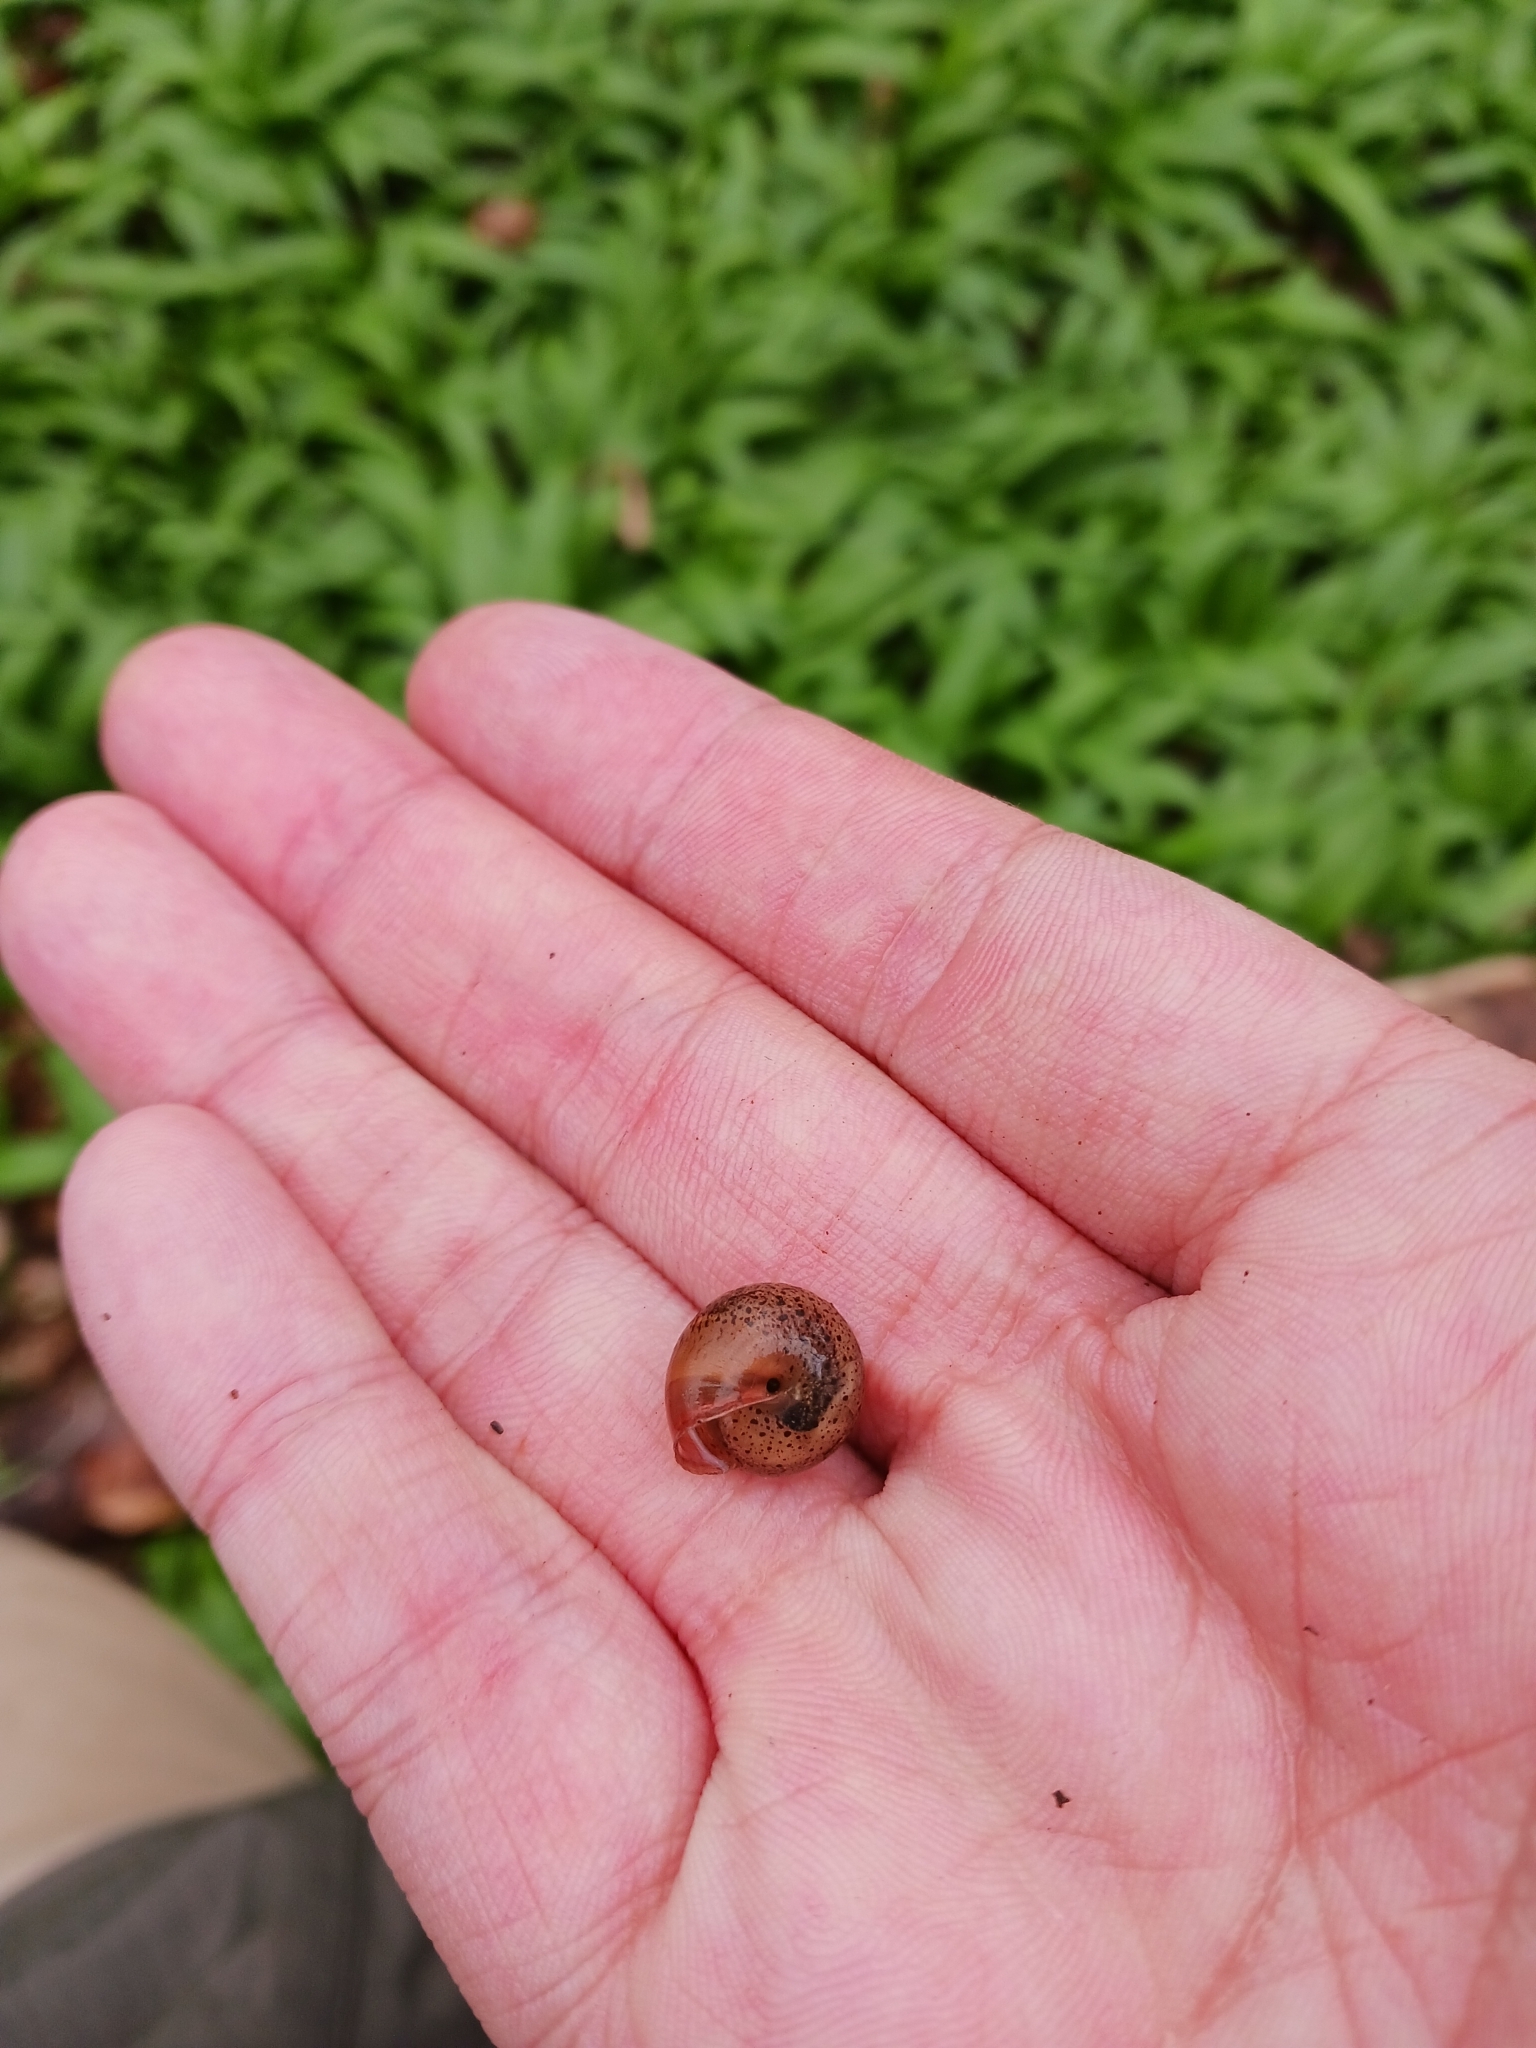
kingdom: Animalia
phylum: Mollusca
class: Gastropoda
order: Stylommatophora
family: Hygromiidae
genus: Monachoides
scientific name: Monachoides incarnatus
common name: Incarnate snail
